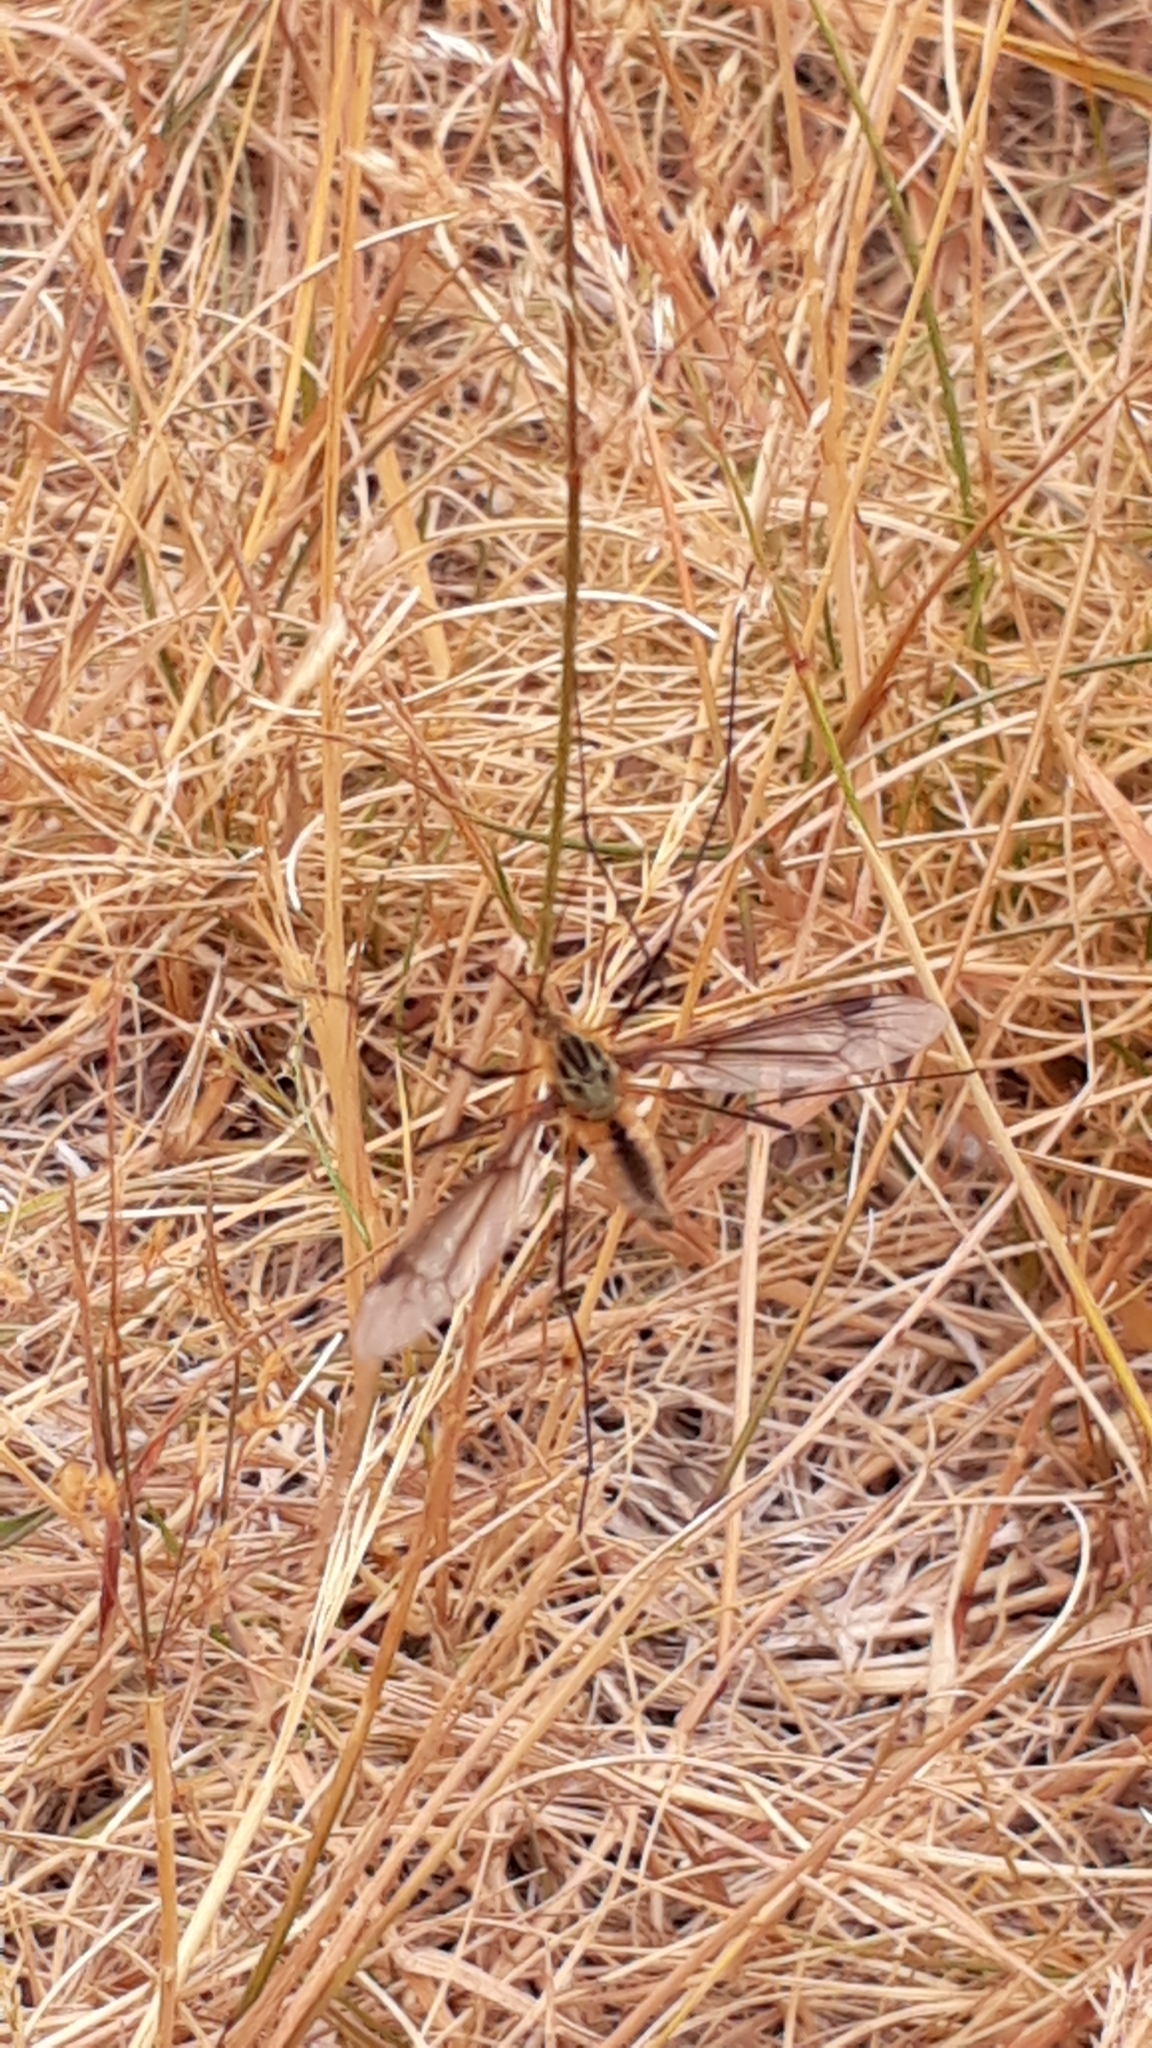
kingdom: Animalia
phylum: Arthropoda
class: Insecta
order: Diptera
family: Tipulidae
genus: Leptotarsus
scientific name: Leptotarsus vulpinus
